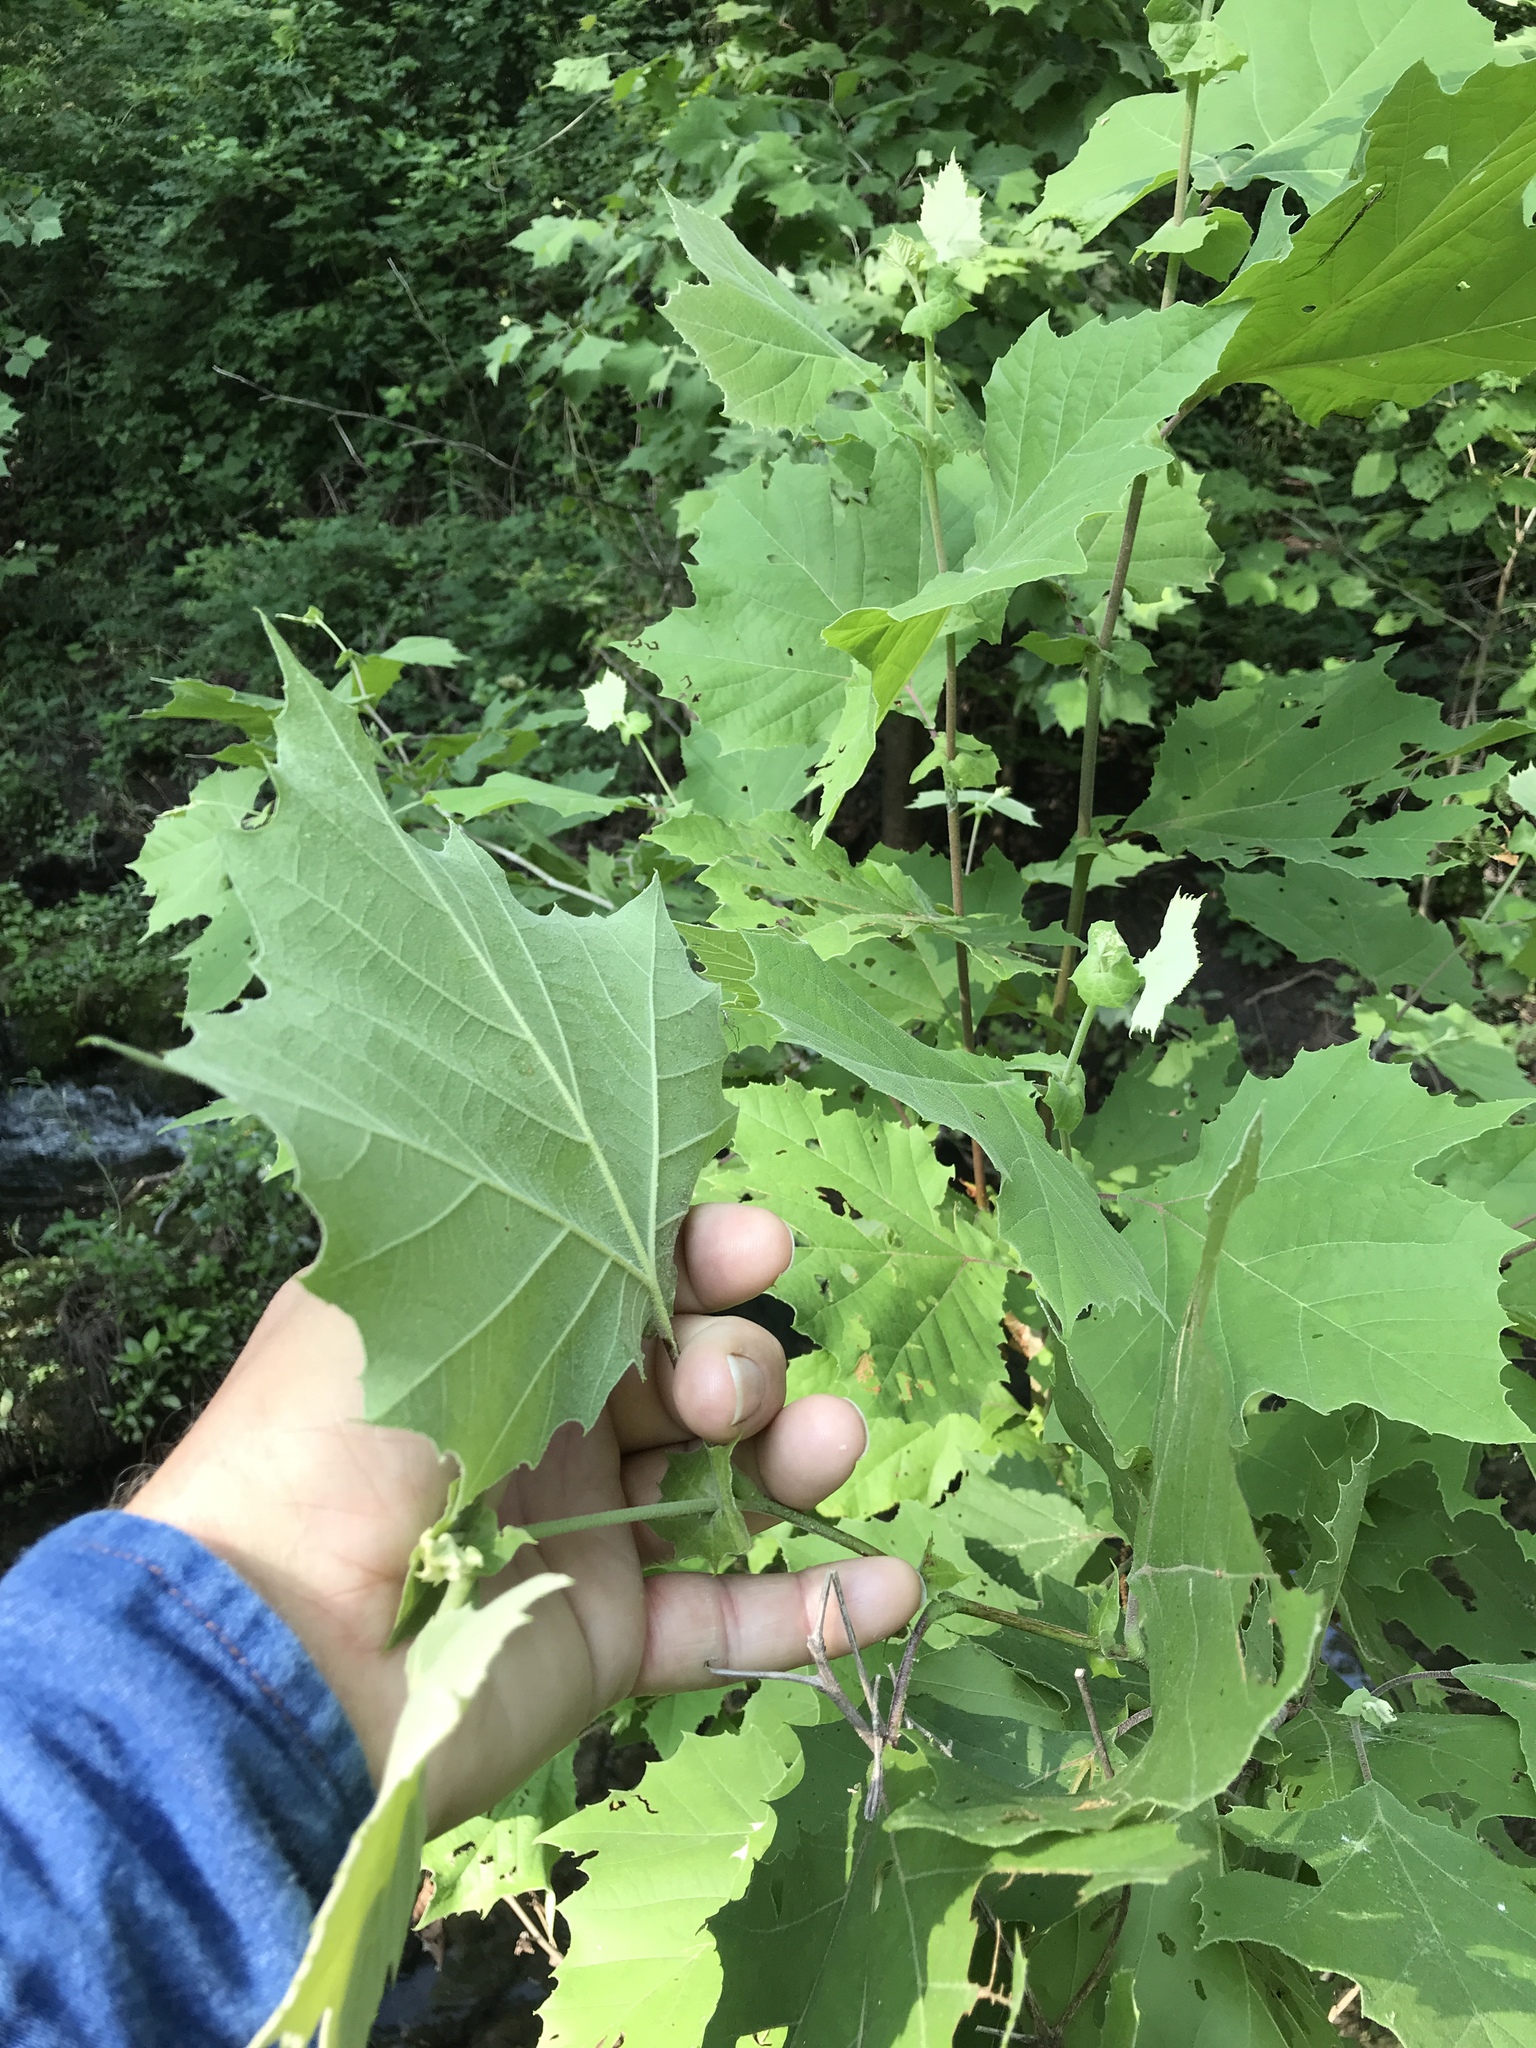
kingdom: Plantae
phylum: Tracheophyta
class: Magnoliopsida
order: Proteales
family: Platanaceae
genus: Platanus
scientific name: Platanus occidentalis
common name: American sycamore
